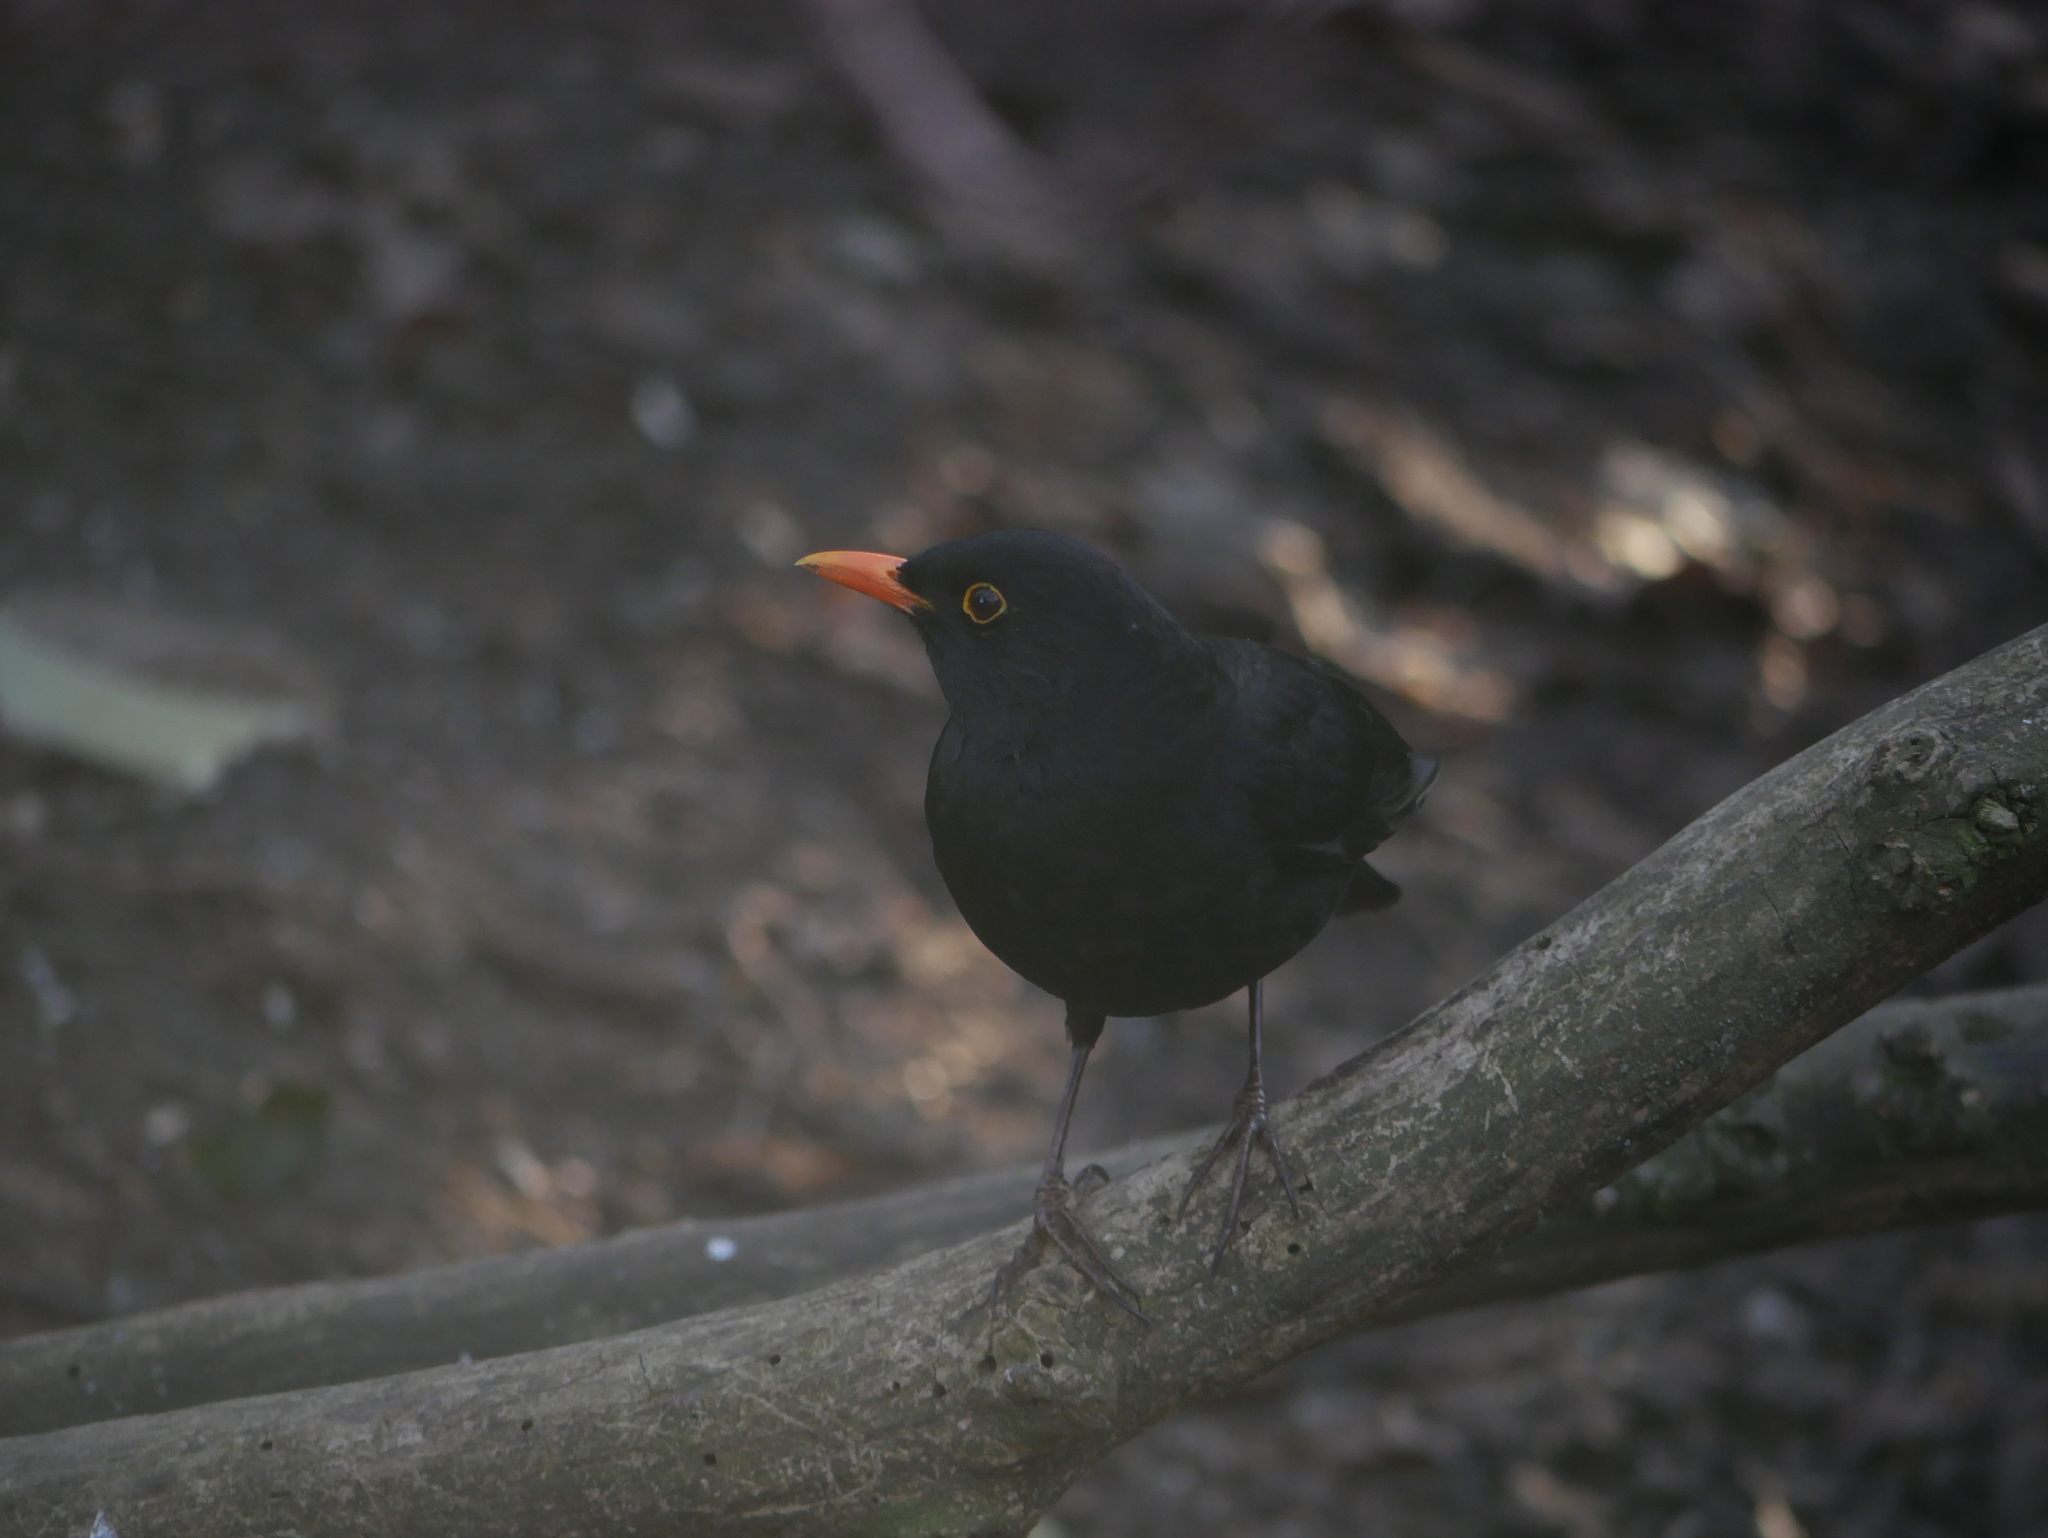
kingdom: Animalia
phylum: Chordata
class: Aves
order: Passeriformes
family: Turdidae
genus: Turdus
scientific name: Turdus merula
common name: Common blackbird
